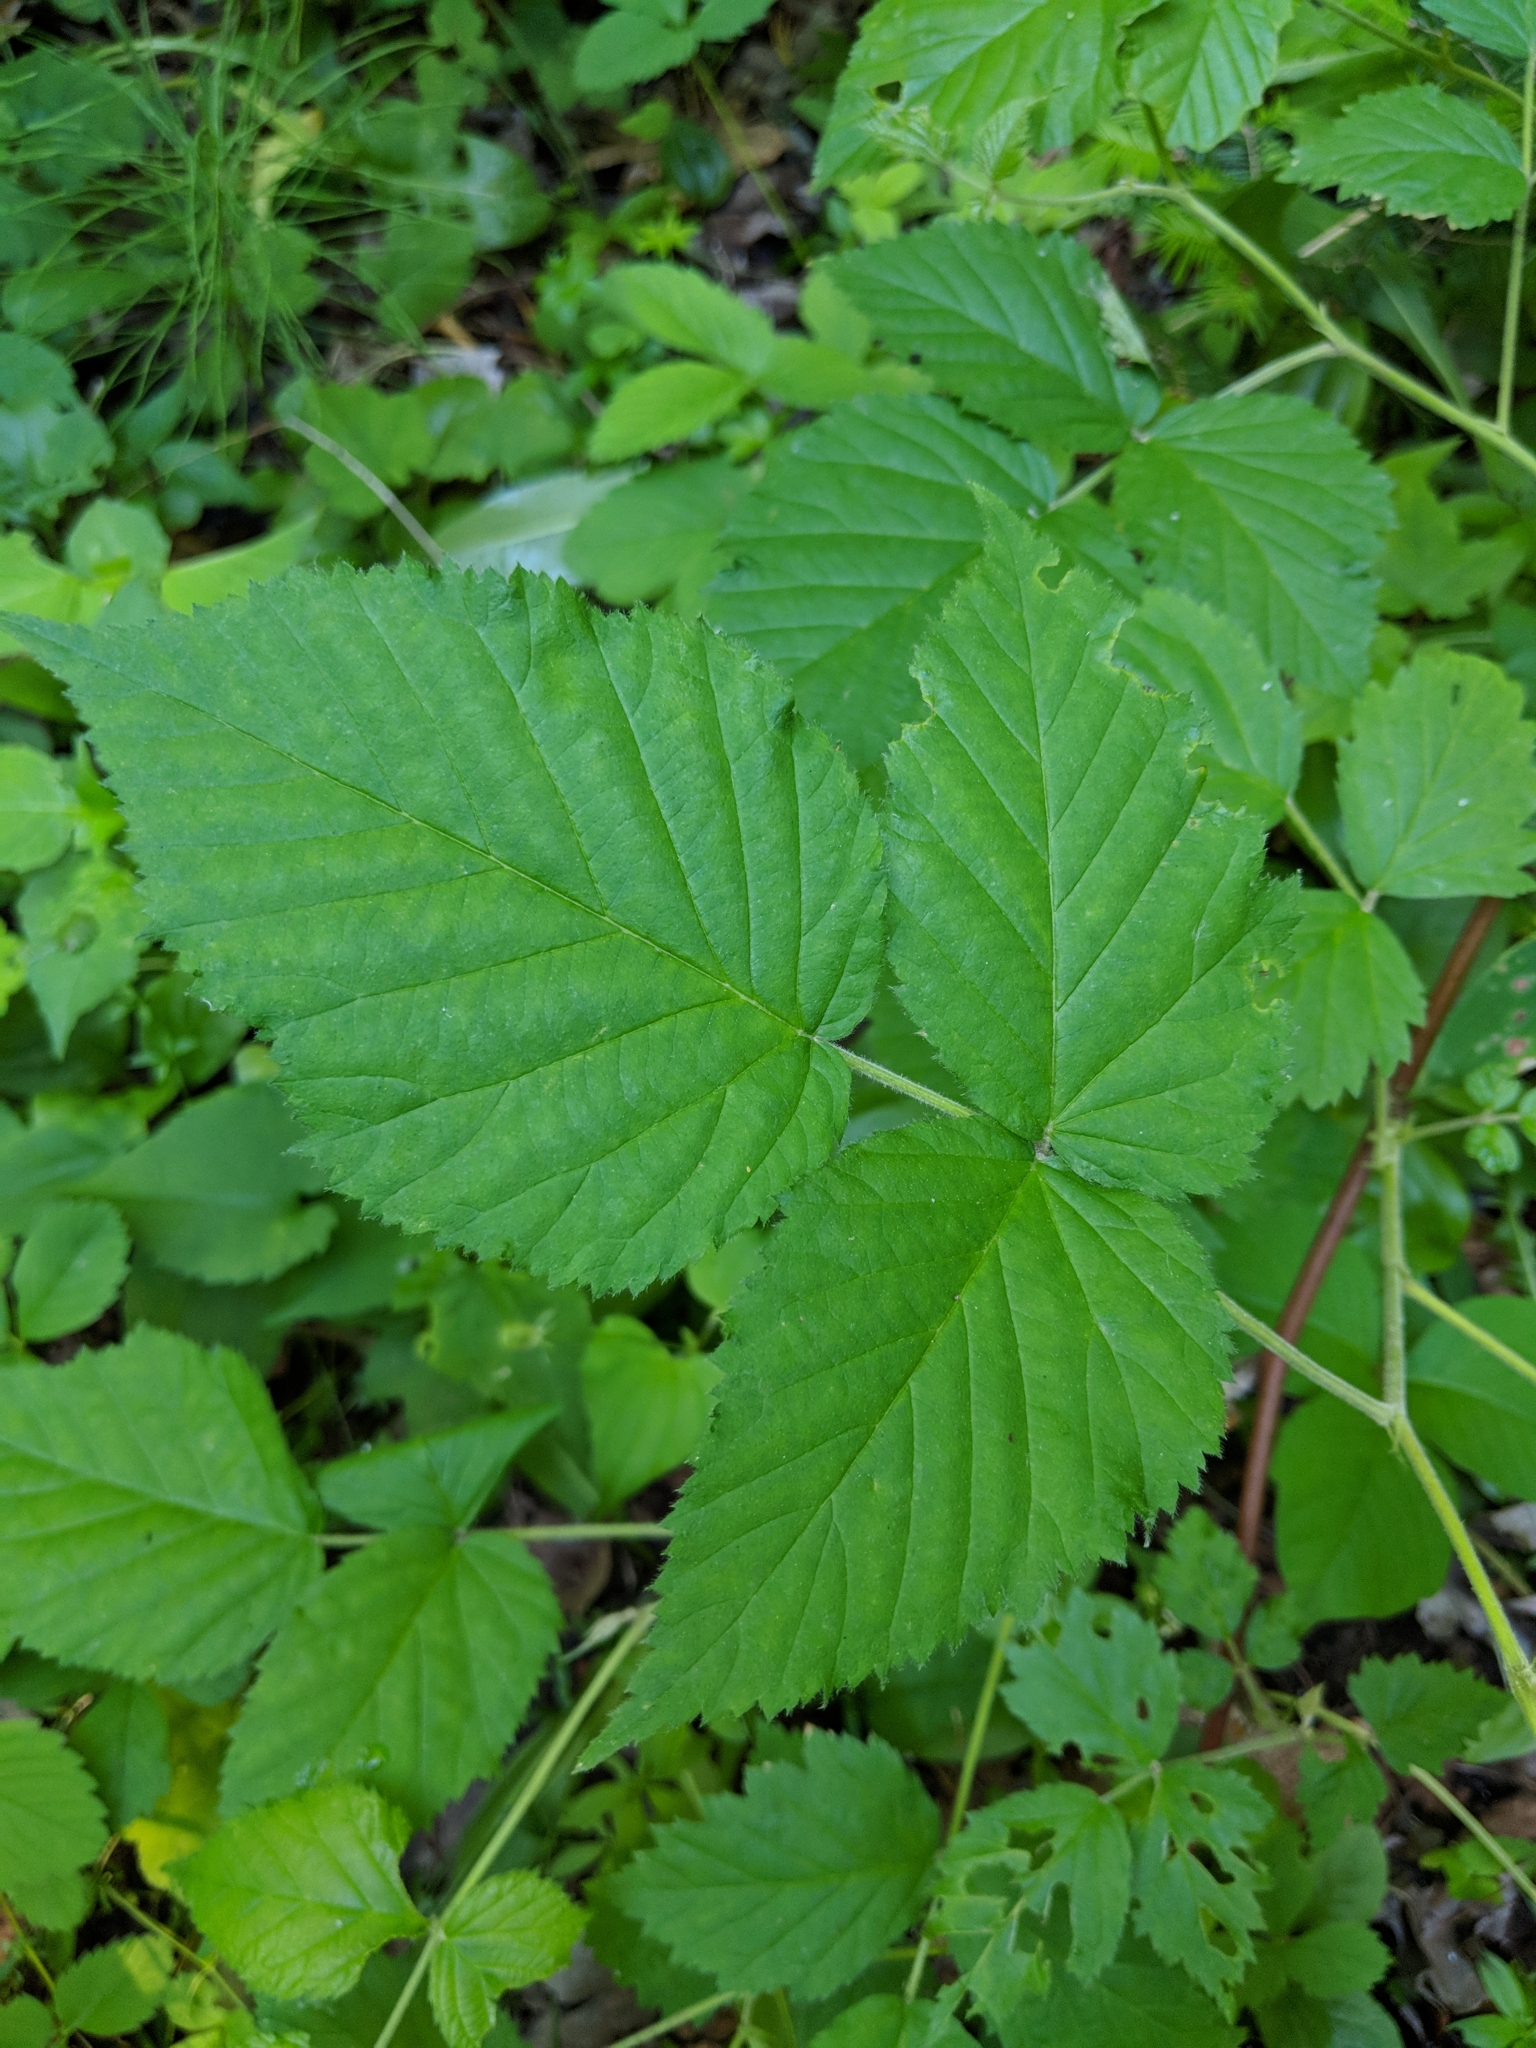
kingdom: Plantae
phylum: Tracheophyta
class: Magnoliopsida
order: Rosales
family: Rosaceae
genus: Rubus
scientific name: Rubus allegheniensis
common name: Allegheny blackberry
